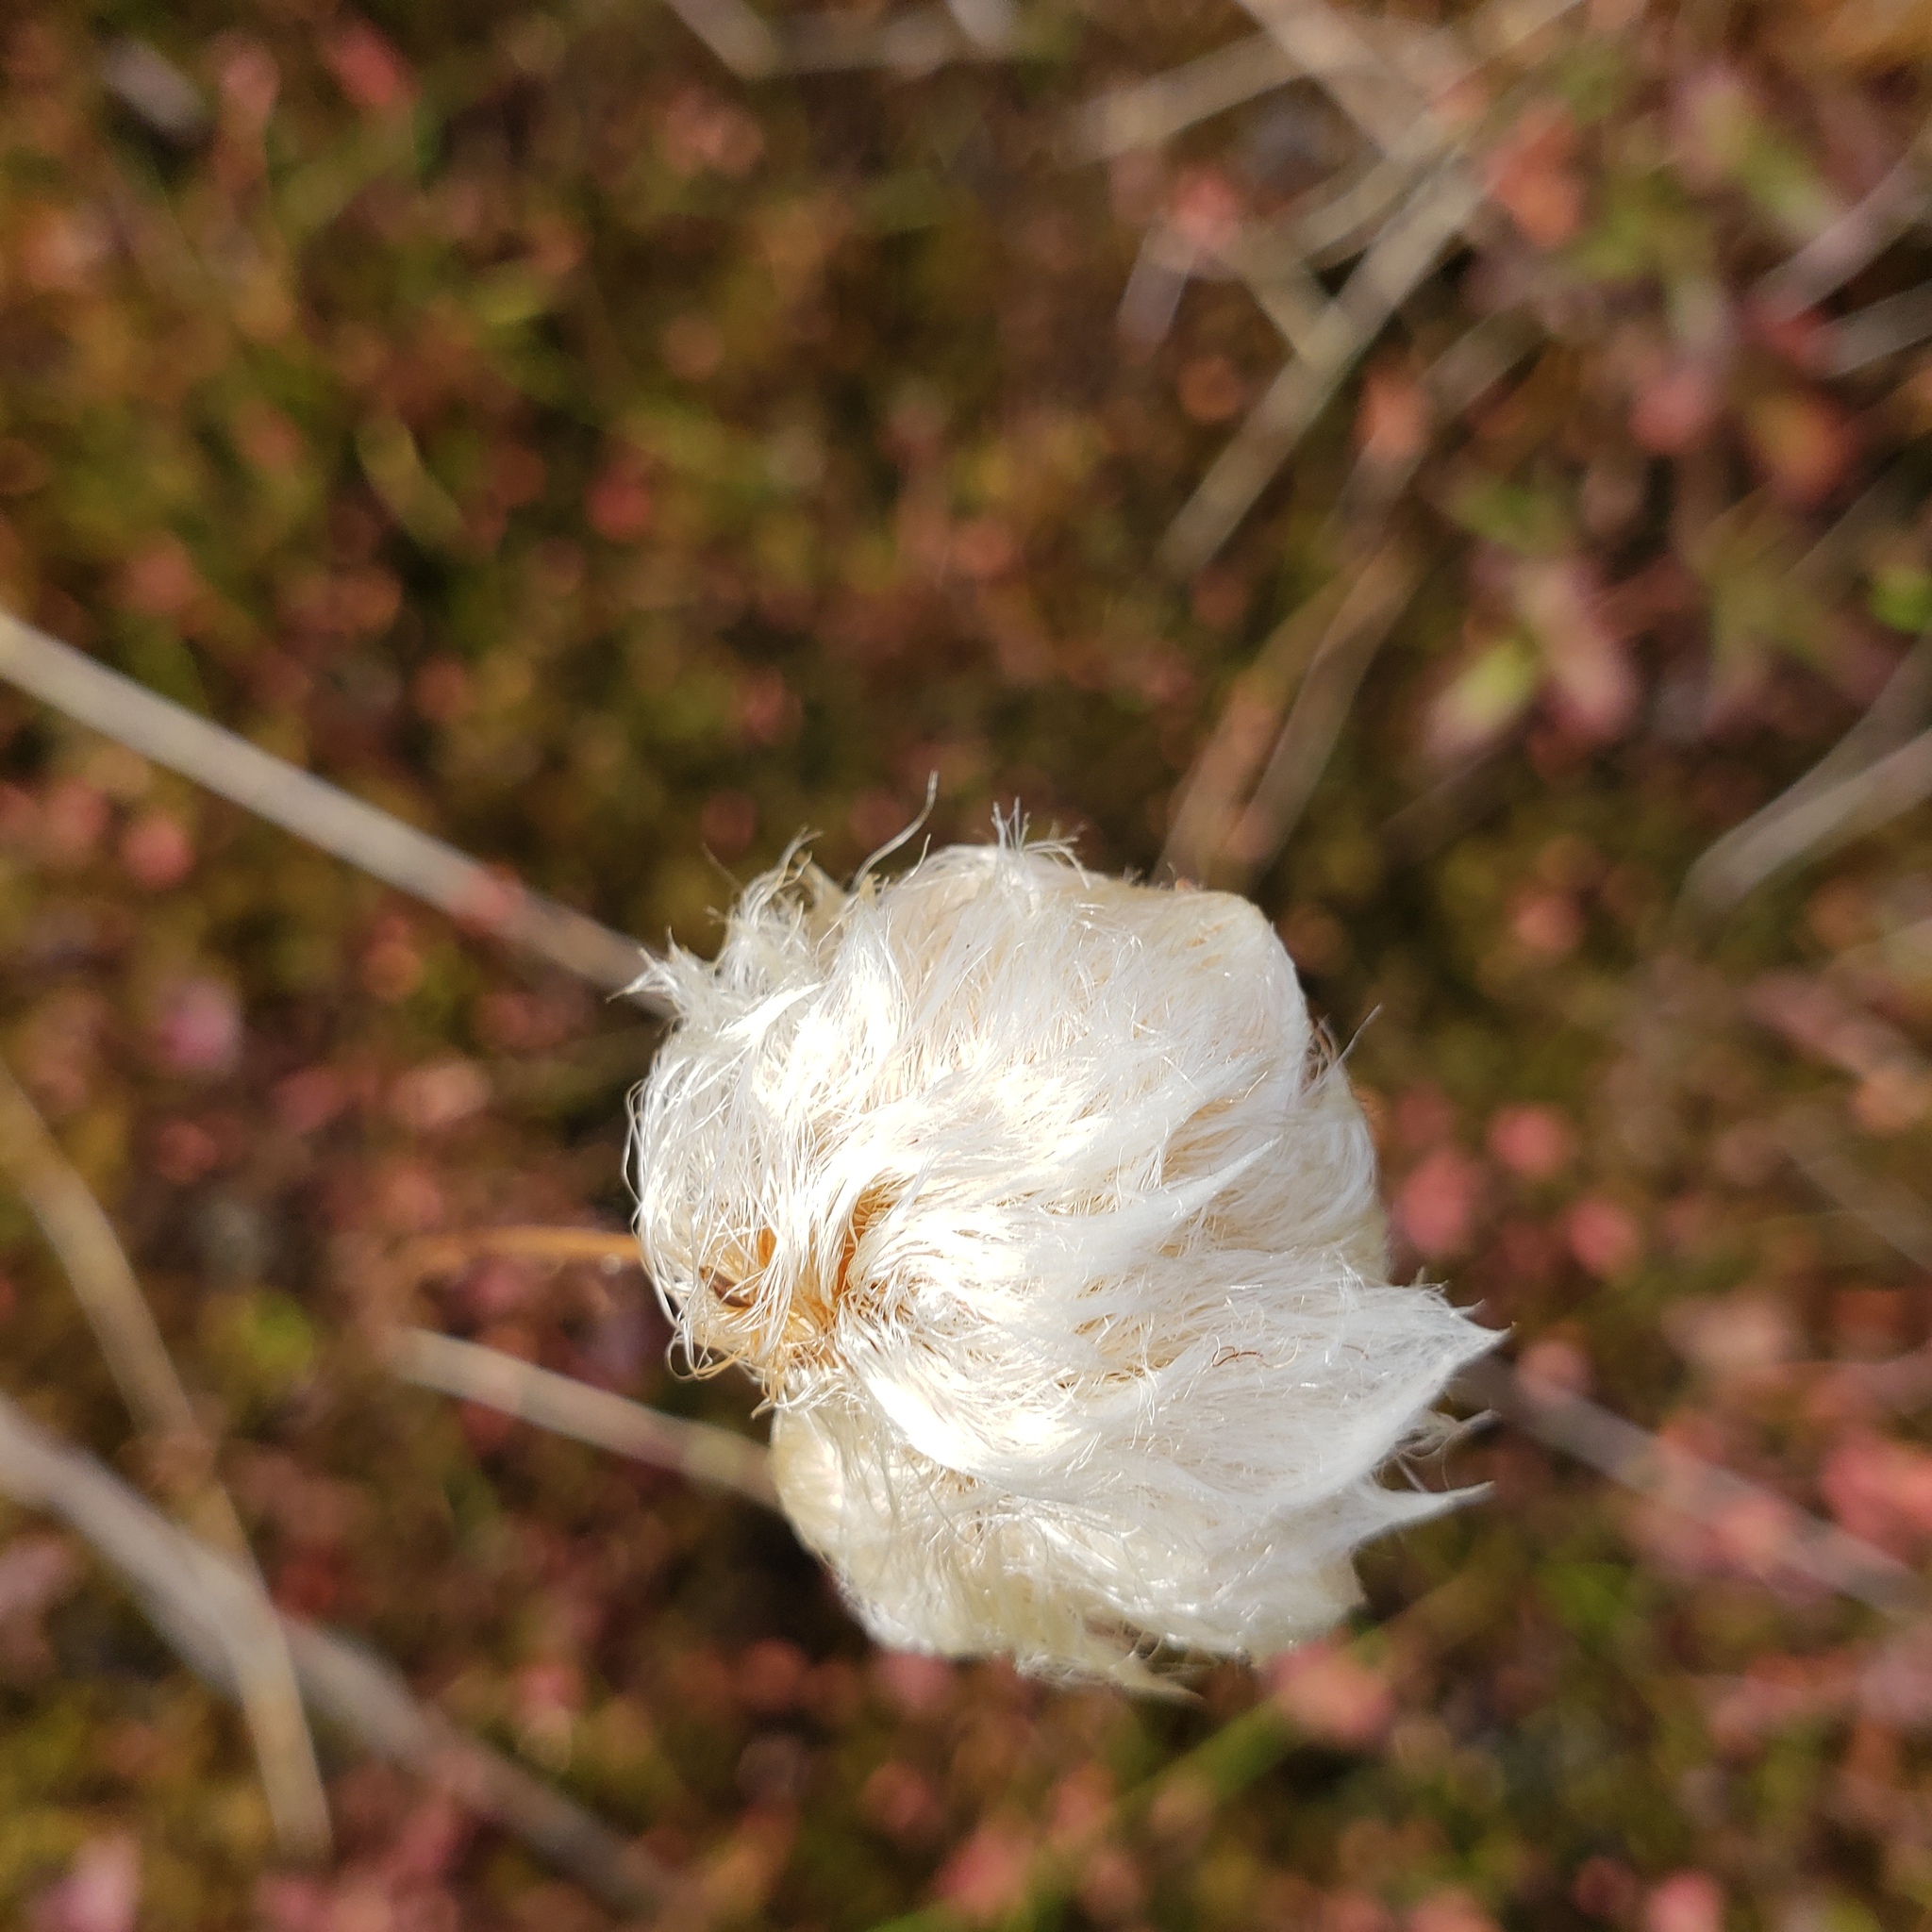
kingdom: Plantae
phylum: Tracheophyta
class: Liliopsida
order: Poales
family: Cyperaceae
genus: Eriophorum
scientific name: Eriophorum virginicum
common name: Tawny cottongrass
